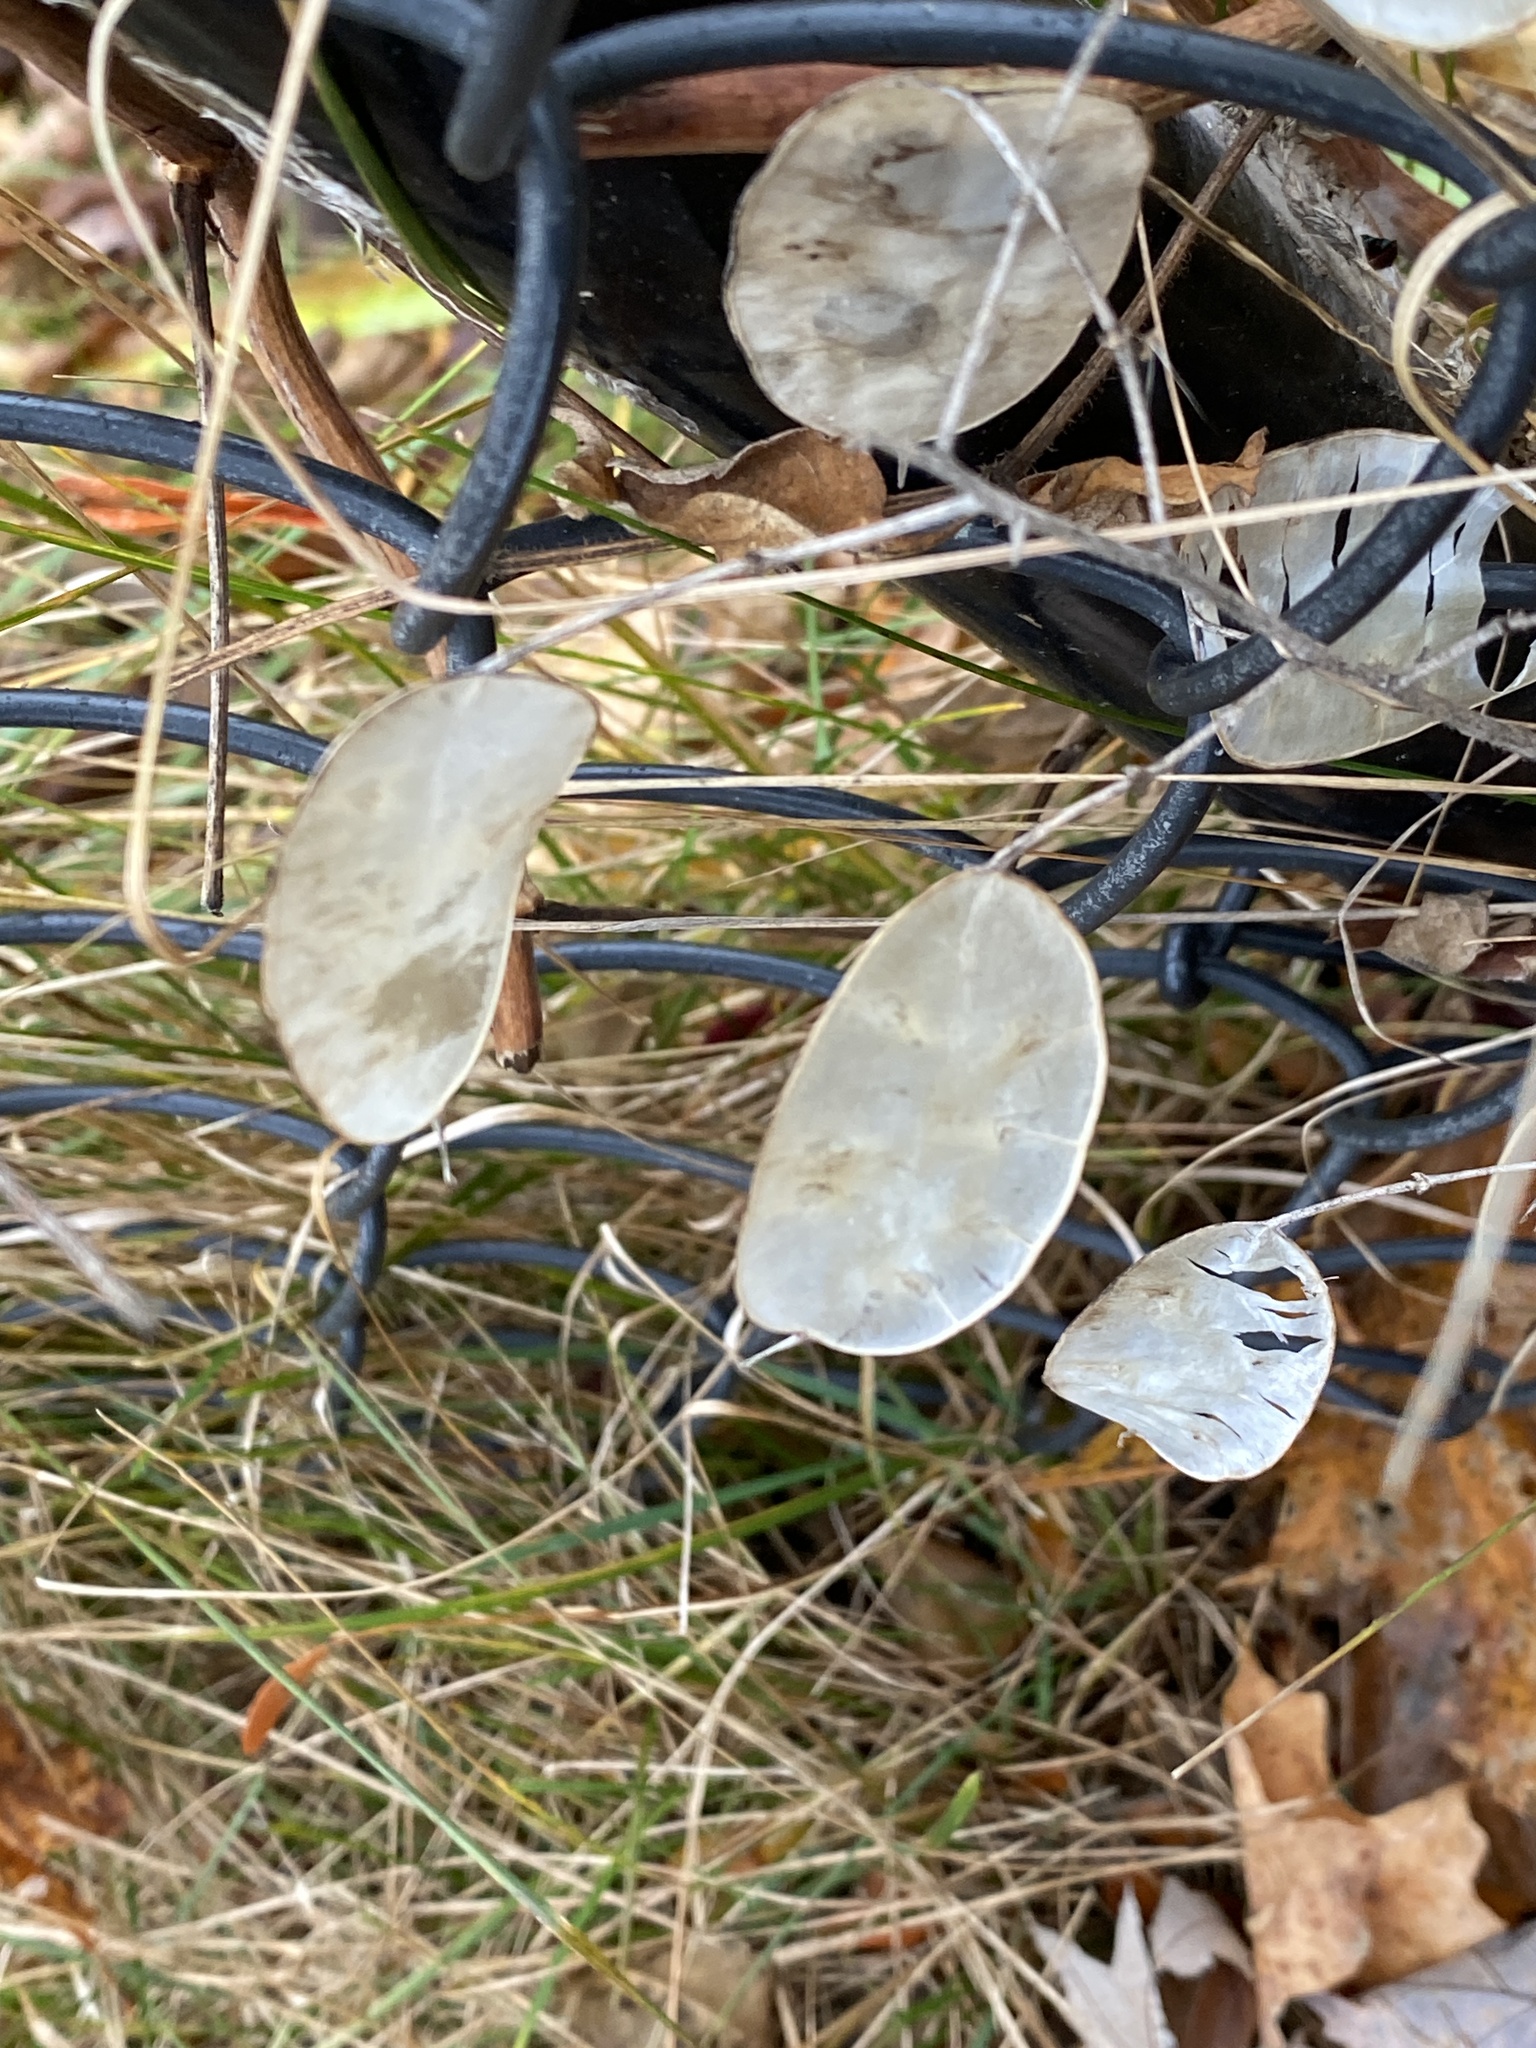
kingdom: Plantae
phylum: Tracheophyta
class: Magnoliopsida
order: Brassicales
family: Brassicaceae
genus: Lunaria
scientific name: Lunaria annua
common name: Honesty
